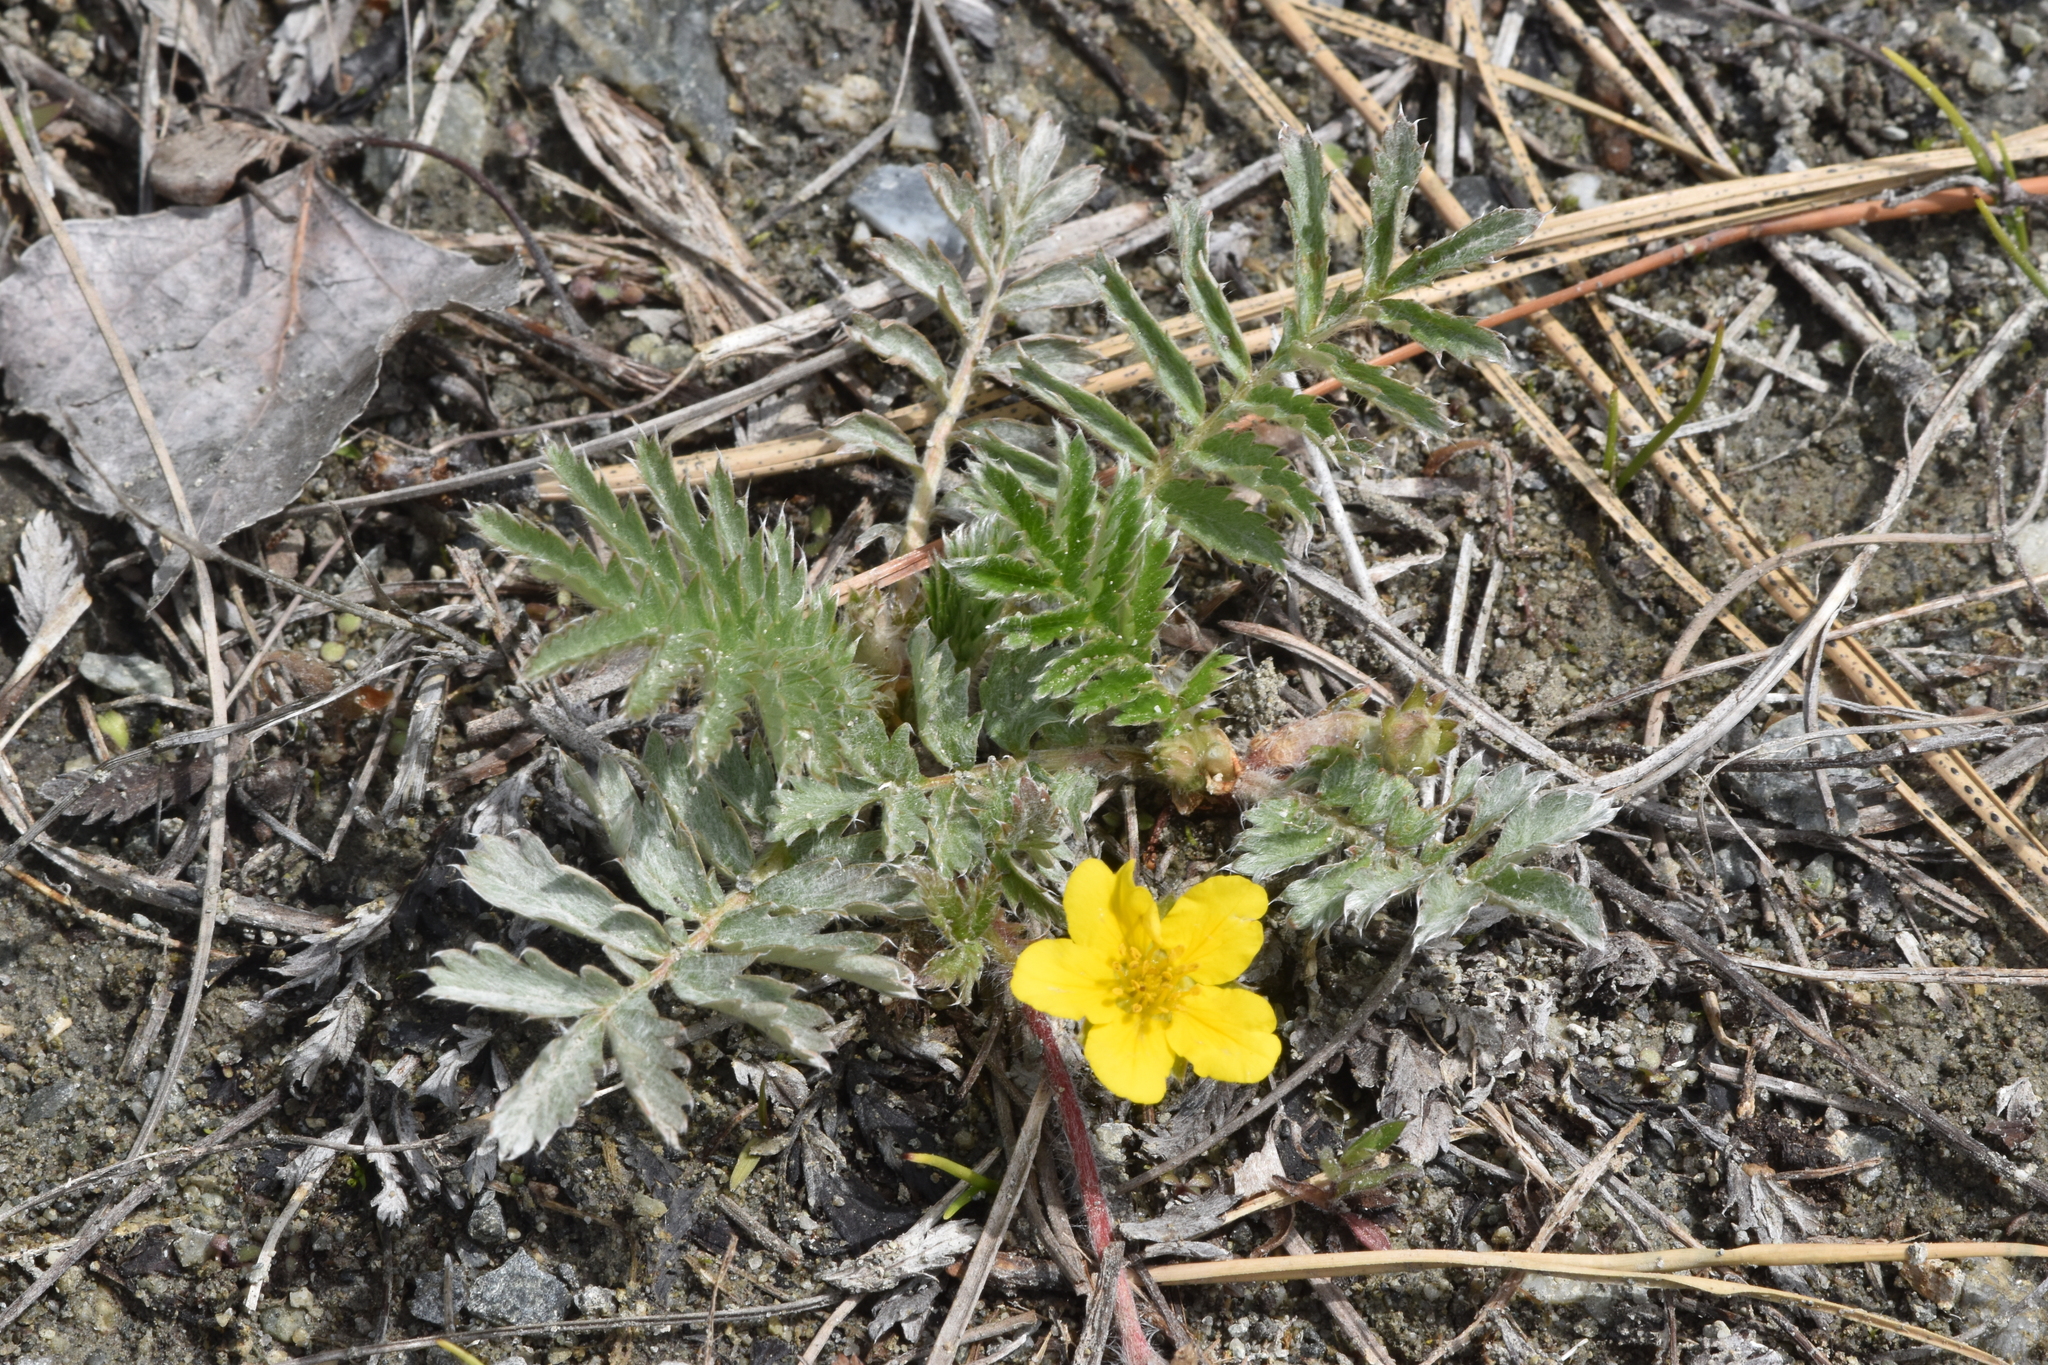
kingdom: Plantae
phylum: Tracheophyta
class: Magnoliopsida
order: Rosales
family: Rosaceae
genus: Argentina
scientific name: Argentina anserina
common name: Common silverweed
